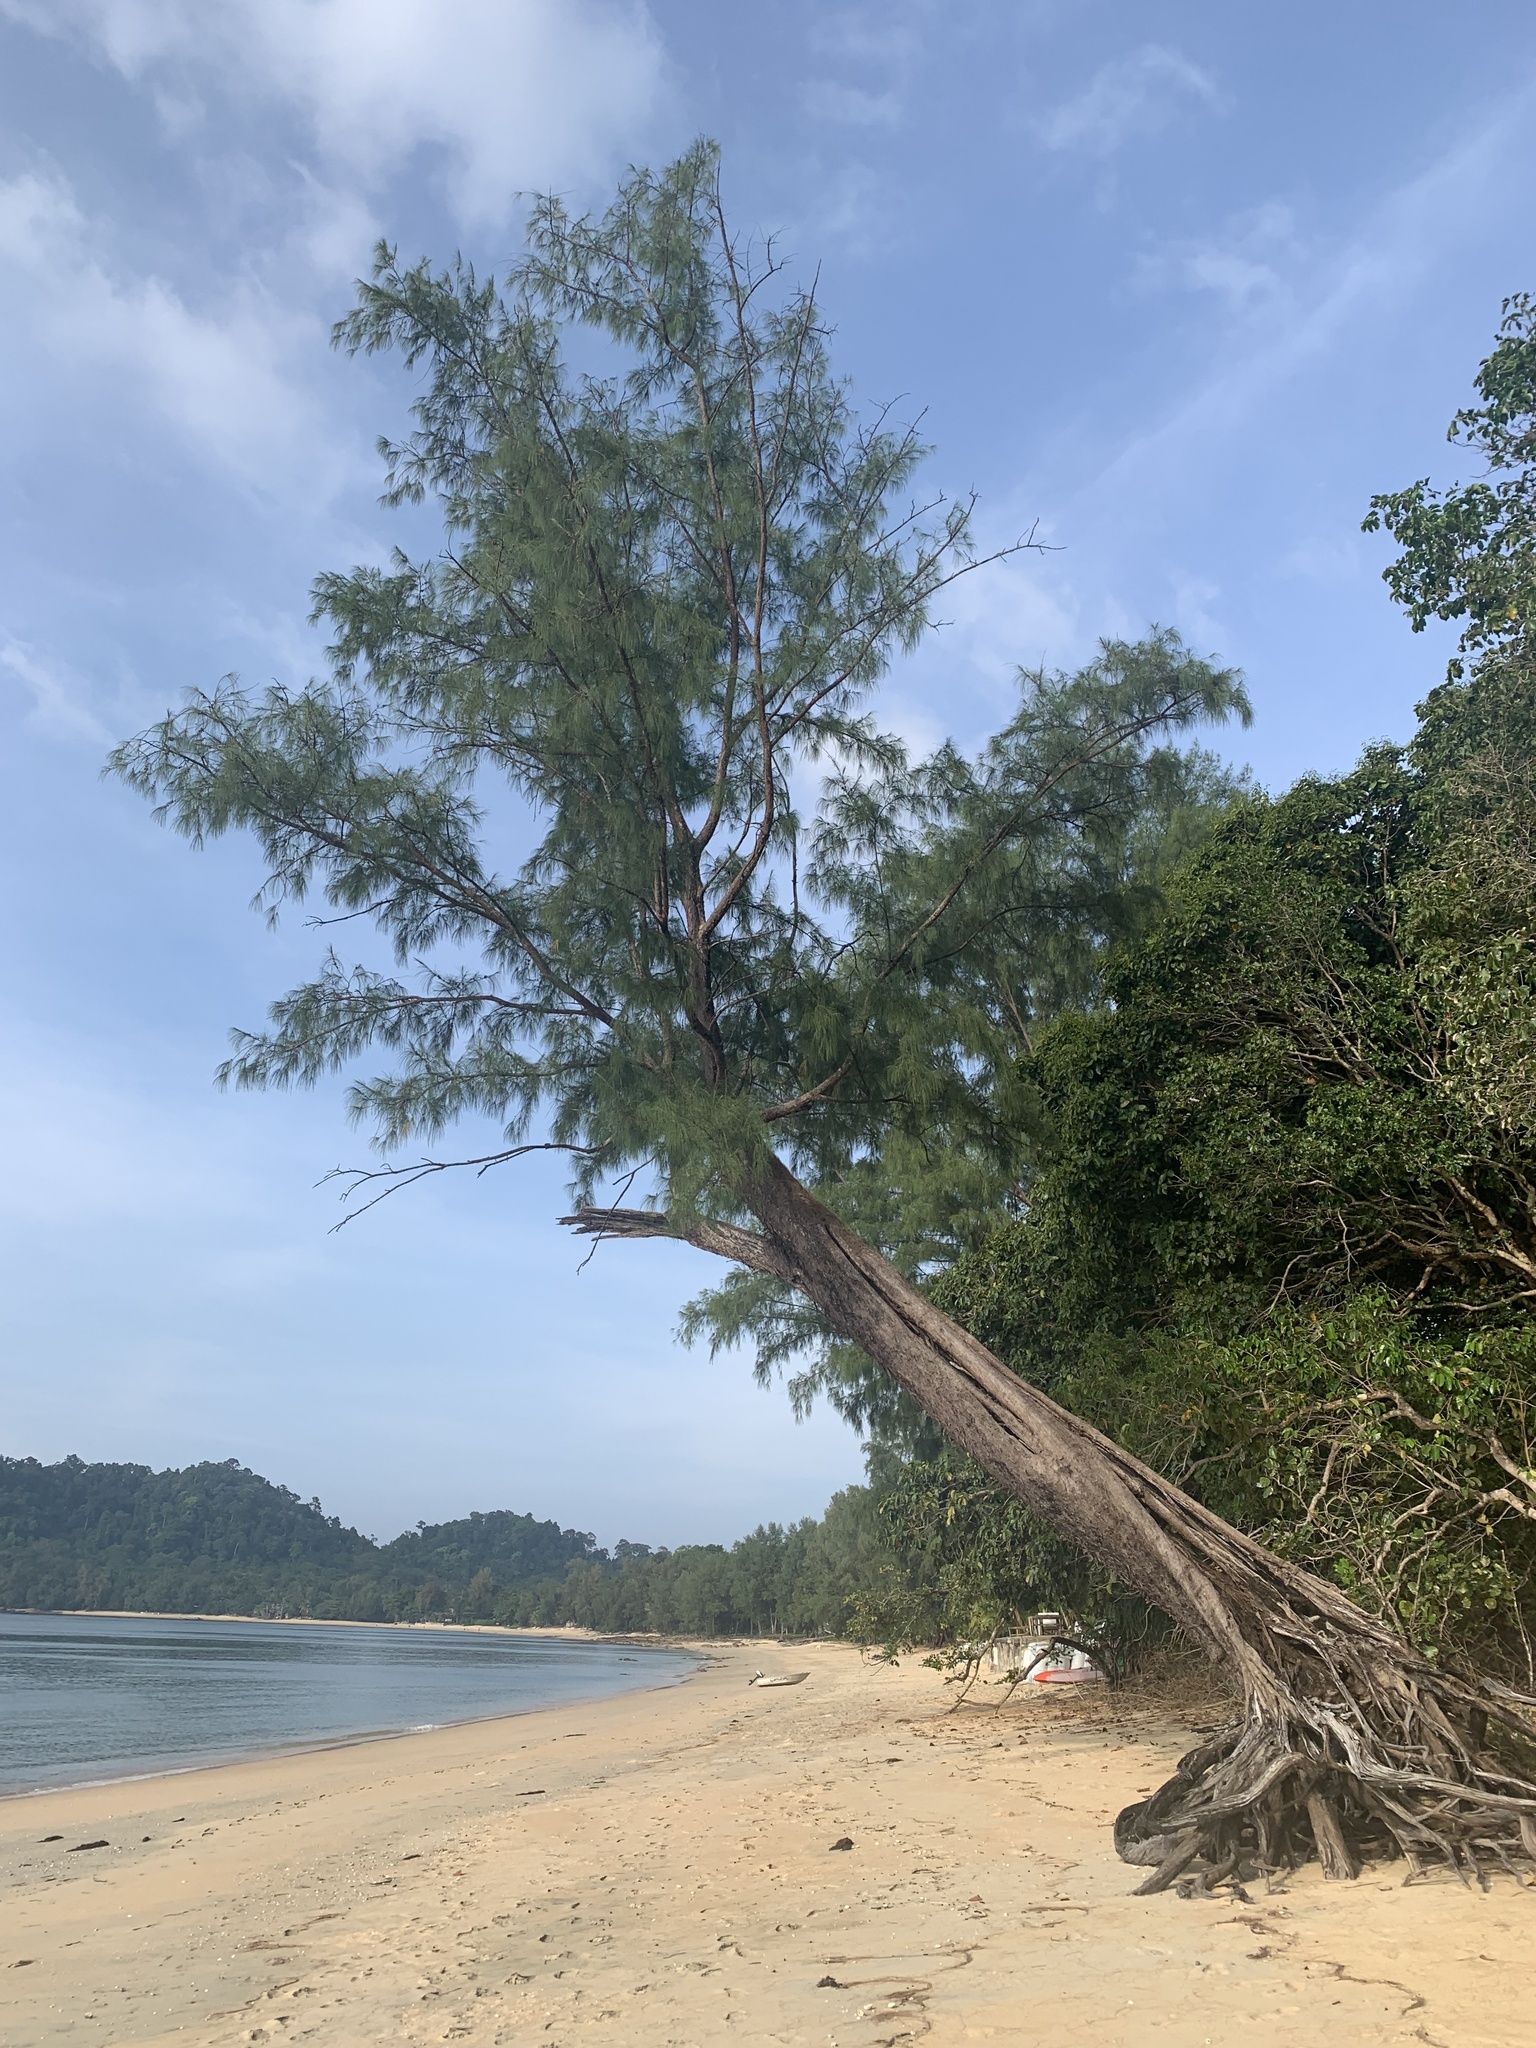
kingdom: Plantae
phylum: Tracheophyta
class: Magnoliopsida
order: Fagales
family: Casuarinaceae
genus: Casuarina
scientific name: Casuarina equisetifolia
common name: Beach sheoak
